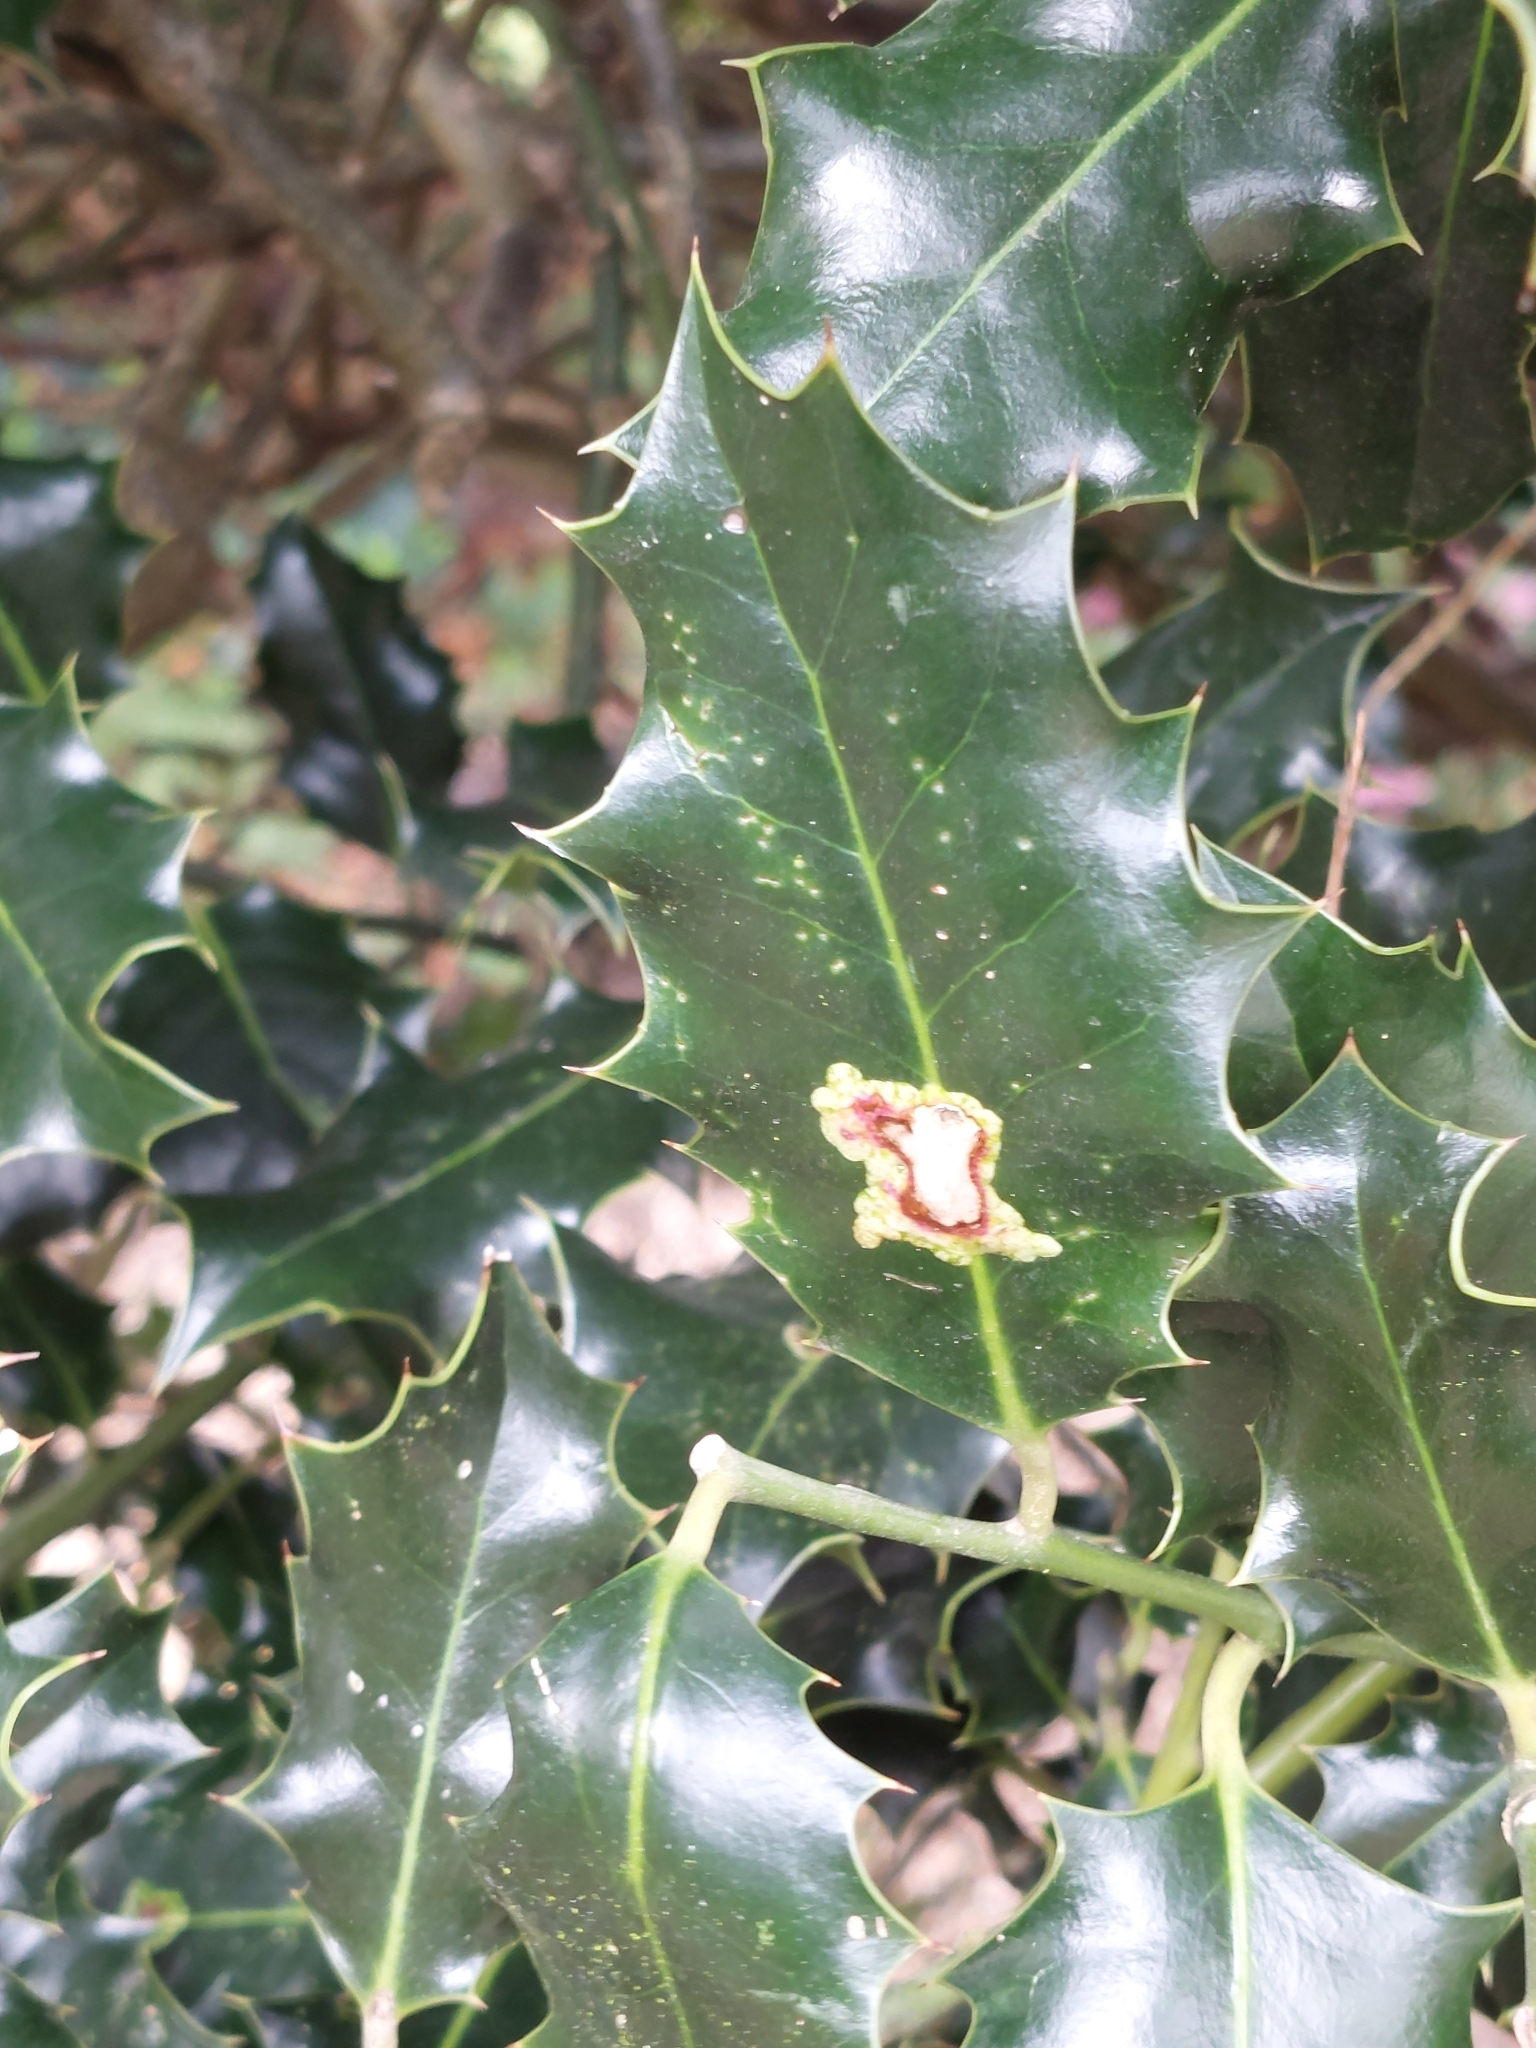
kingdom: Plantae
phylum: Tracheophyta
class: Magnoliopsida
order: Aquifoliales
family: Aquifoliaceae
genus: Ilex
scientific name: Ilex aquifolium
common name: English holly
